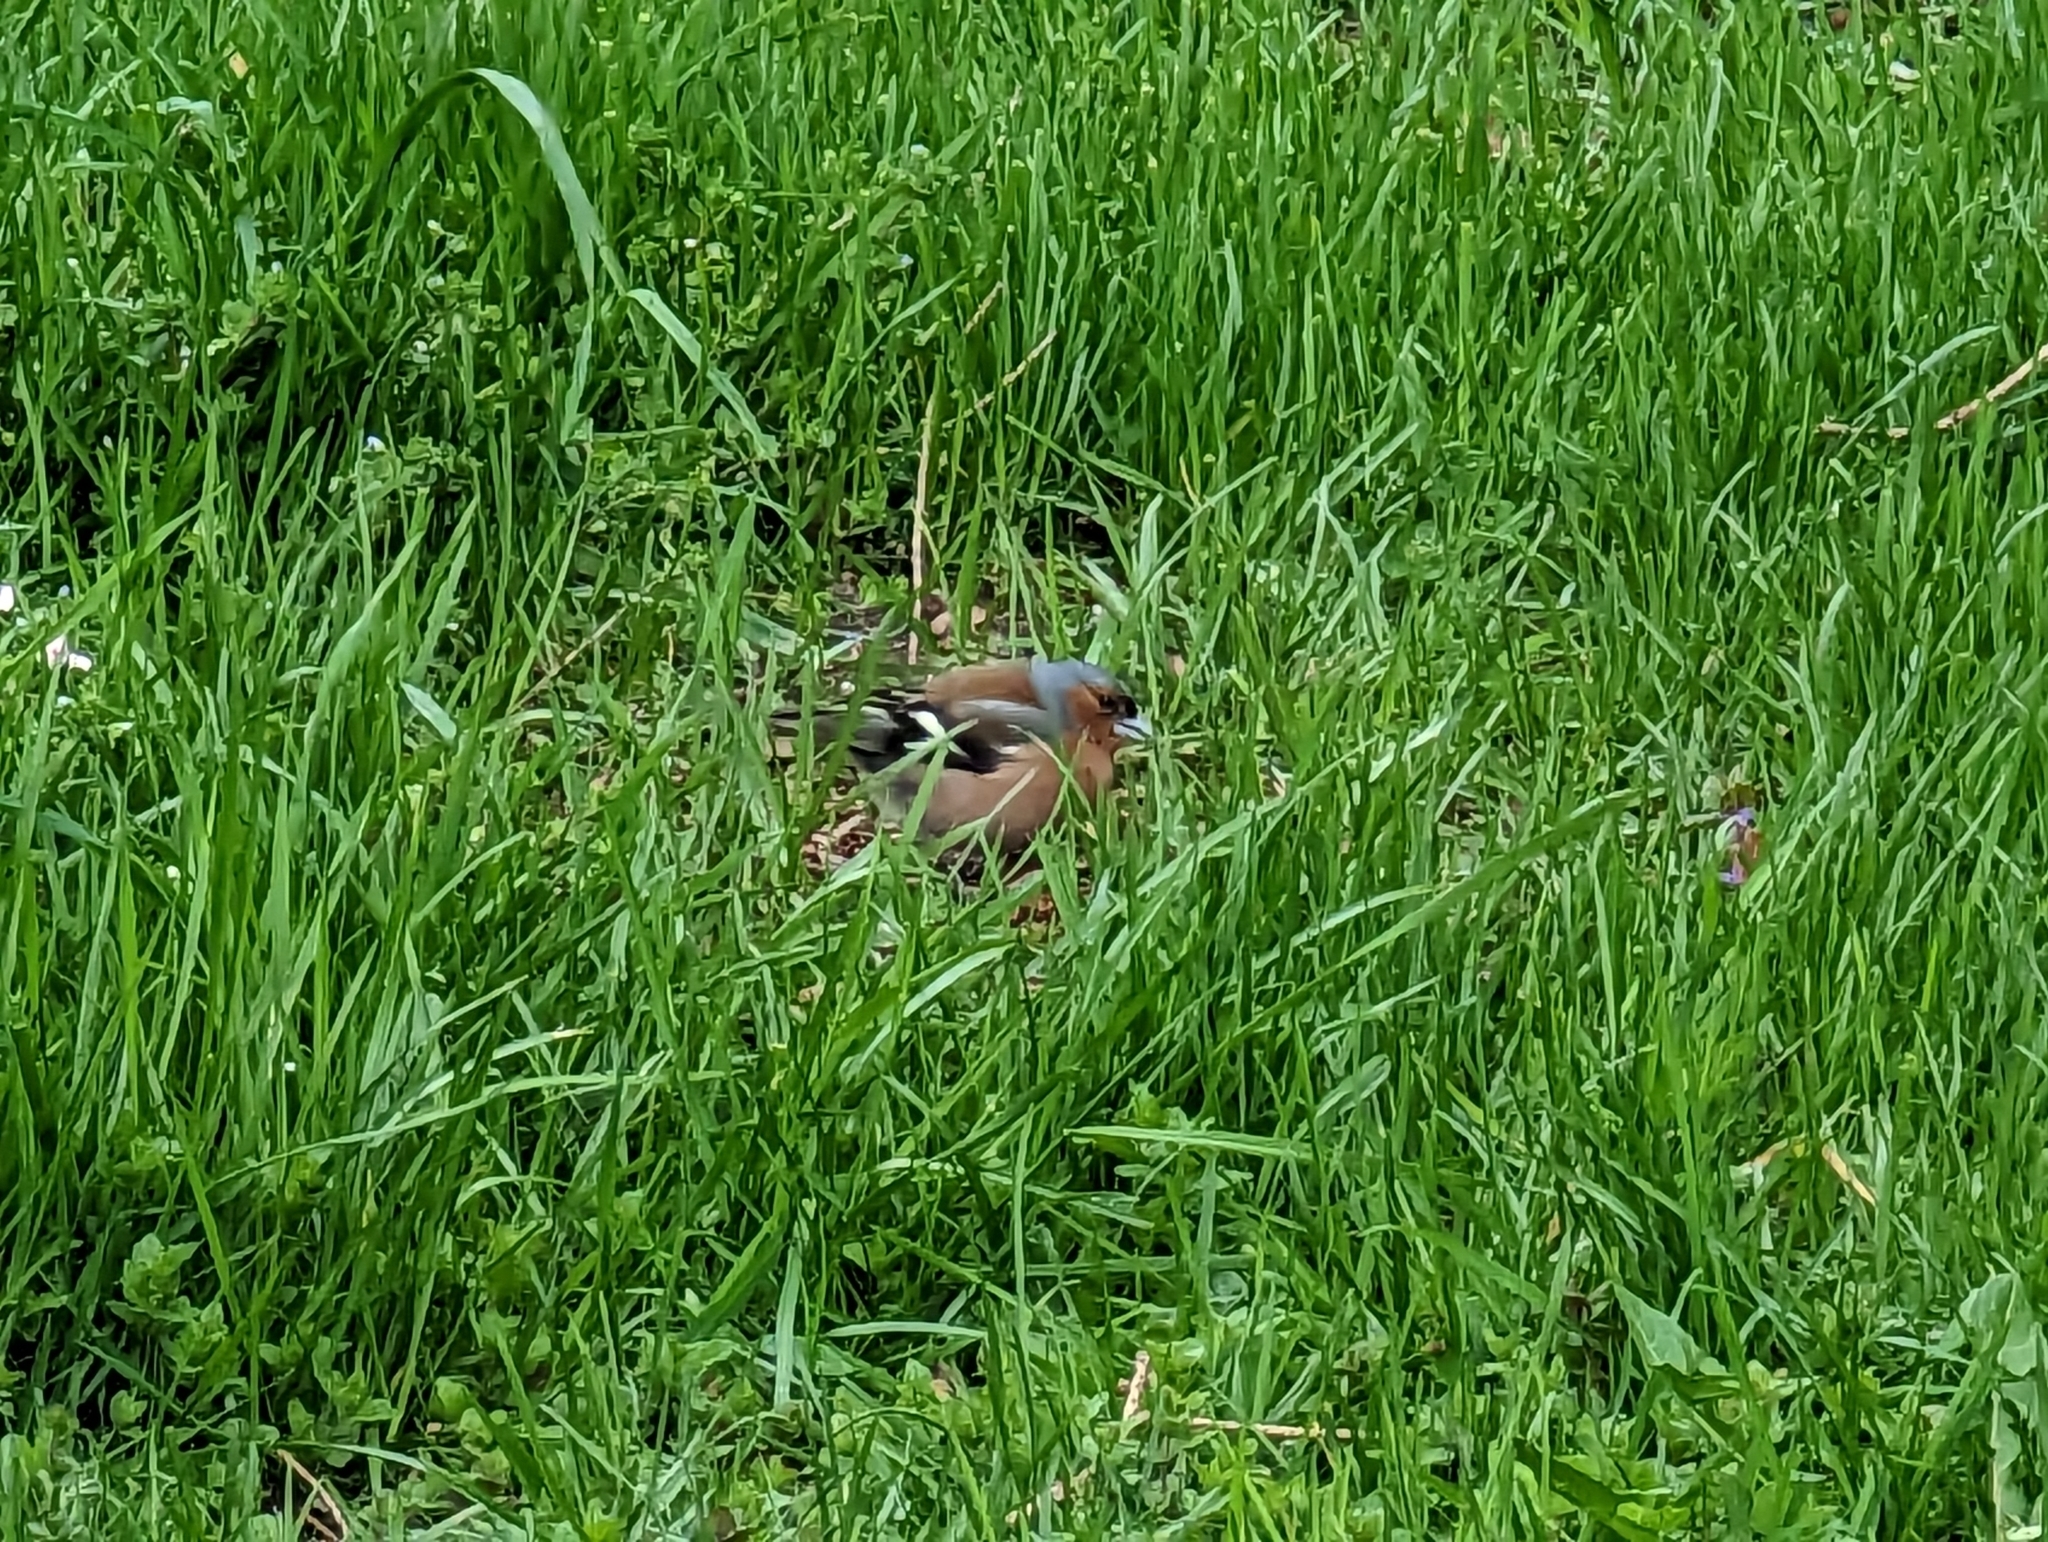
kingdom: Animalia
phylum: Chordata
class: Aves
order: Passeriformes
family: Fringillidae
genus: Fringilla
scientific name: Fringilla coelebs
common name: Common chaffinch
